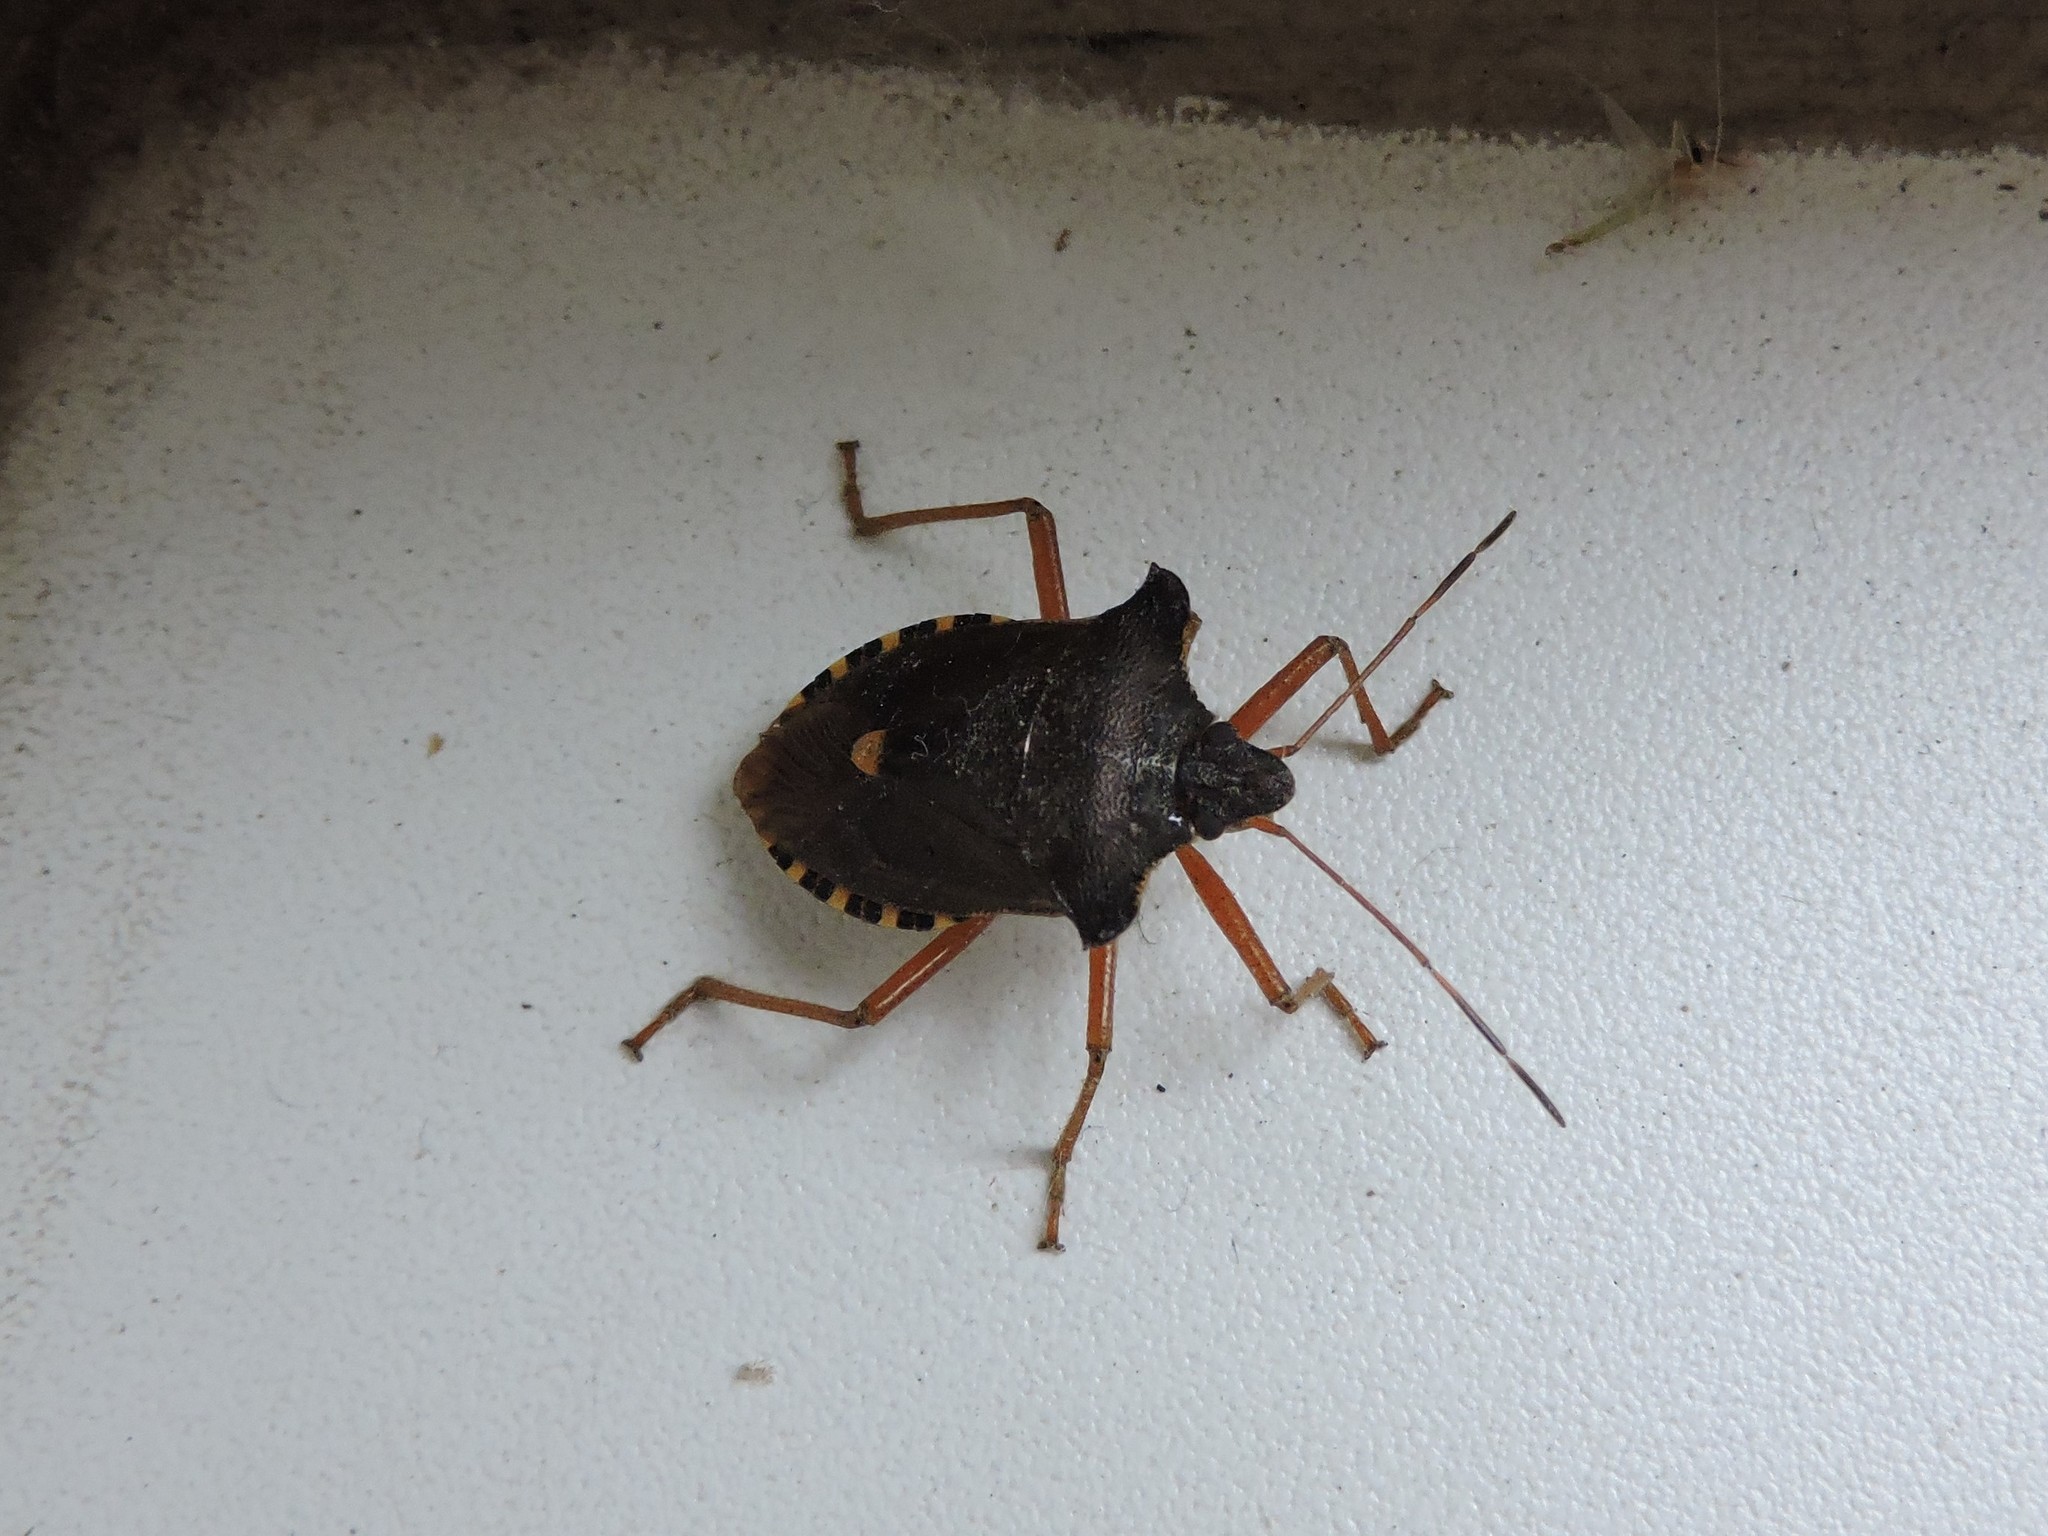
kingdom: Animalia
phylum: Arthropoda
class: Insecta
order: Hemiptera
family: Pentatomidae
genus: Pentatoma
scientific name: Pentatoma rufipes
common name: Forest bug
